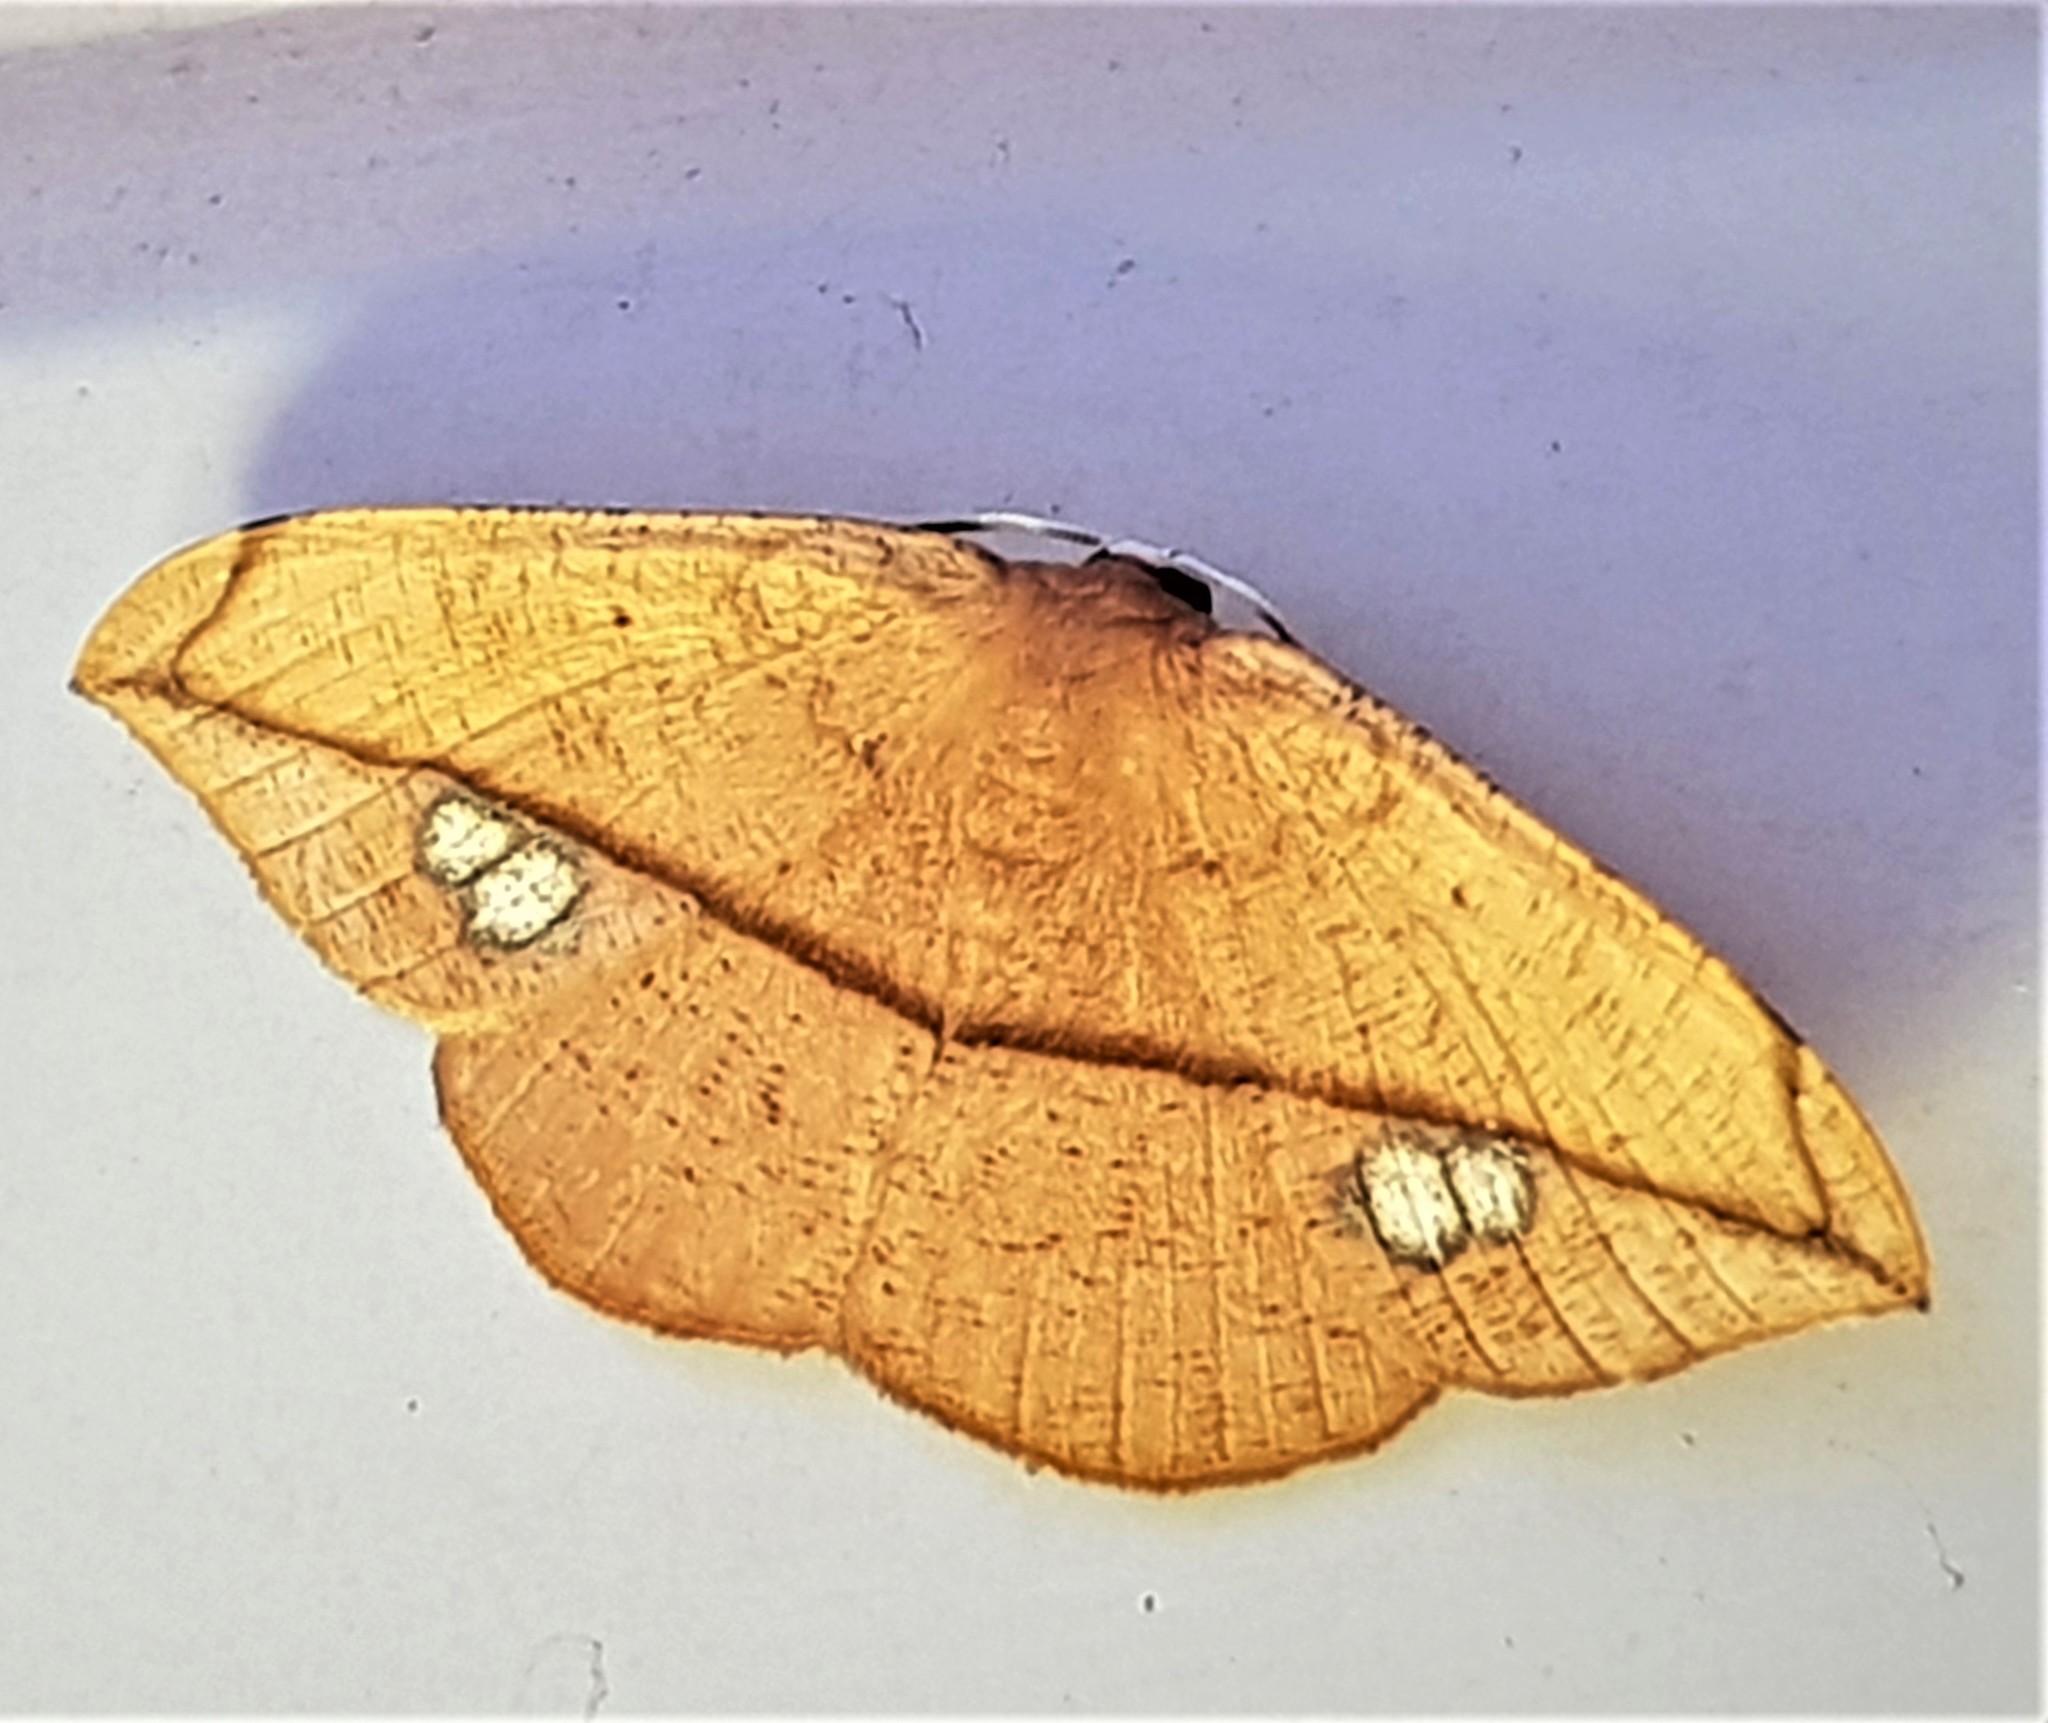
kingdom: Animalia
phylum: Arthropoda
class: Insecta
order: Lepidoptera
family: Geometridae
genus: Patalene
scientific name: Patalene hamulata
